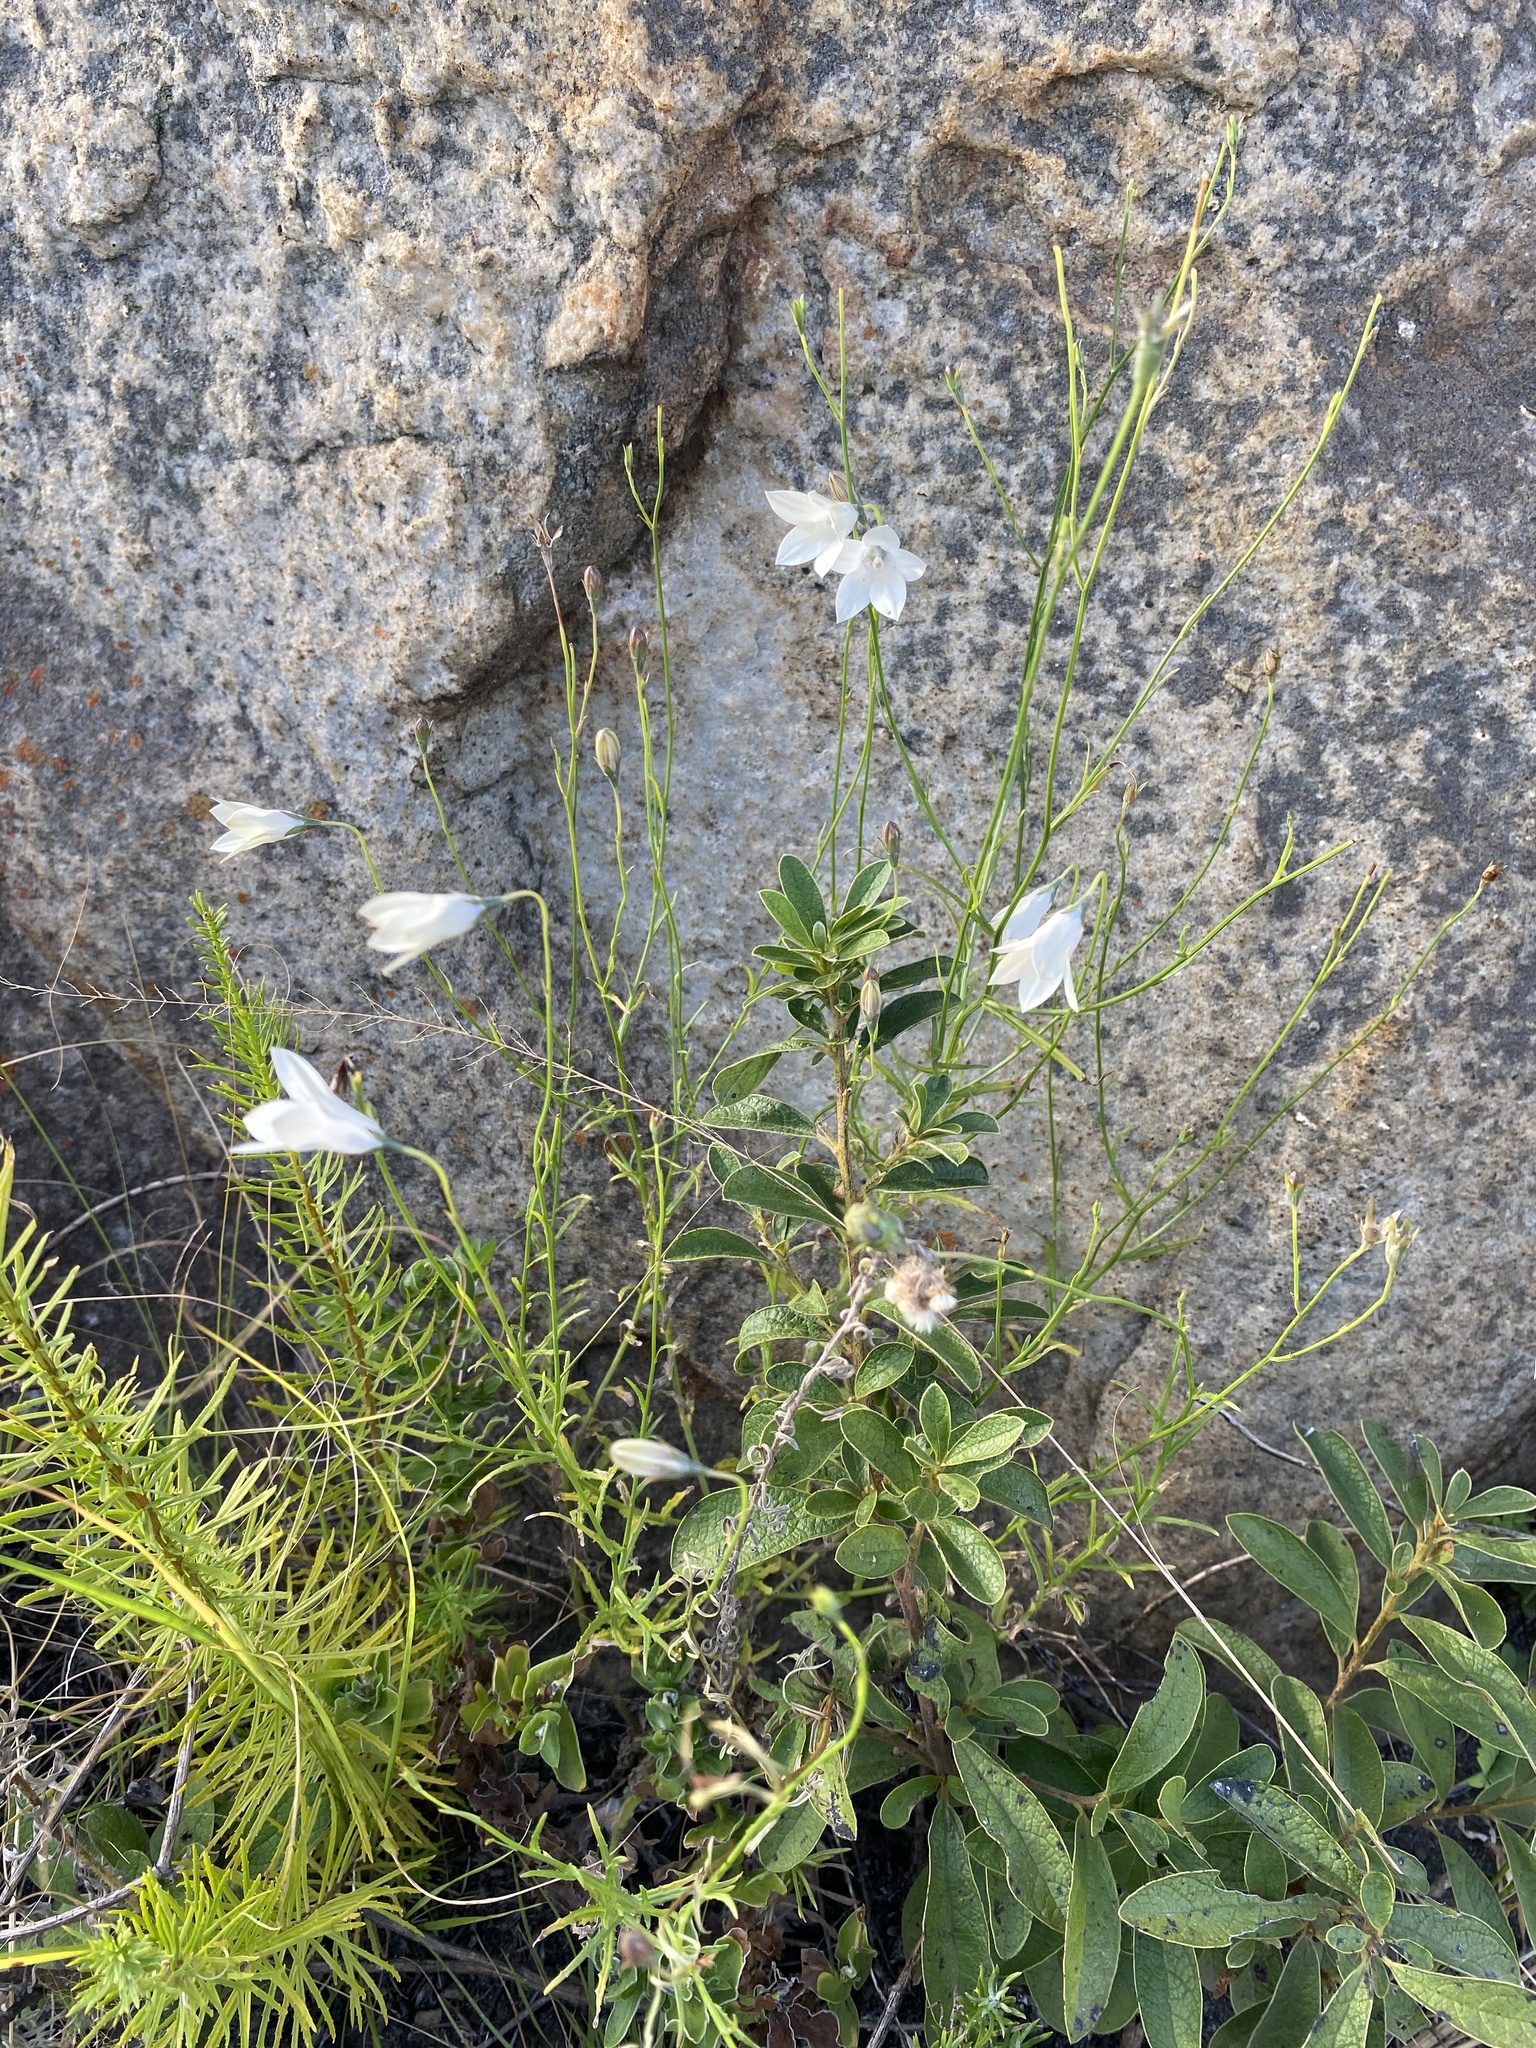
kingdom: Plantae
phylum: Tracheophyta
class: Magnoliopsida
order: Asterales
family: Campanulaceae
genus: Wahlenbergia
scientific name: Wahlenbergia undulata
